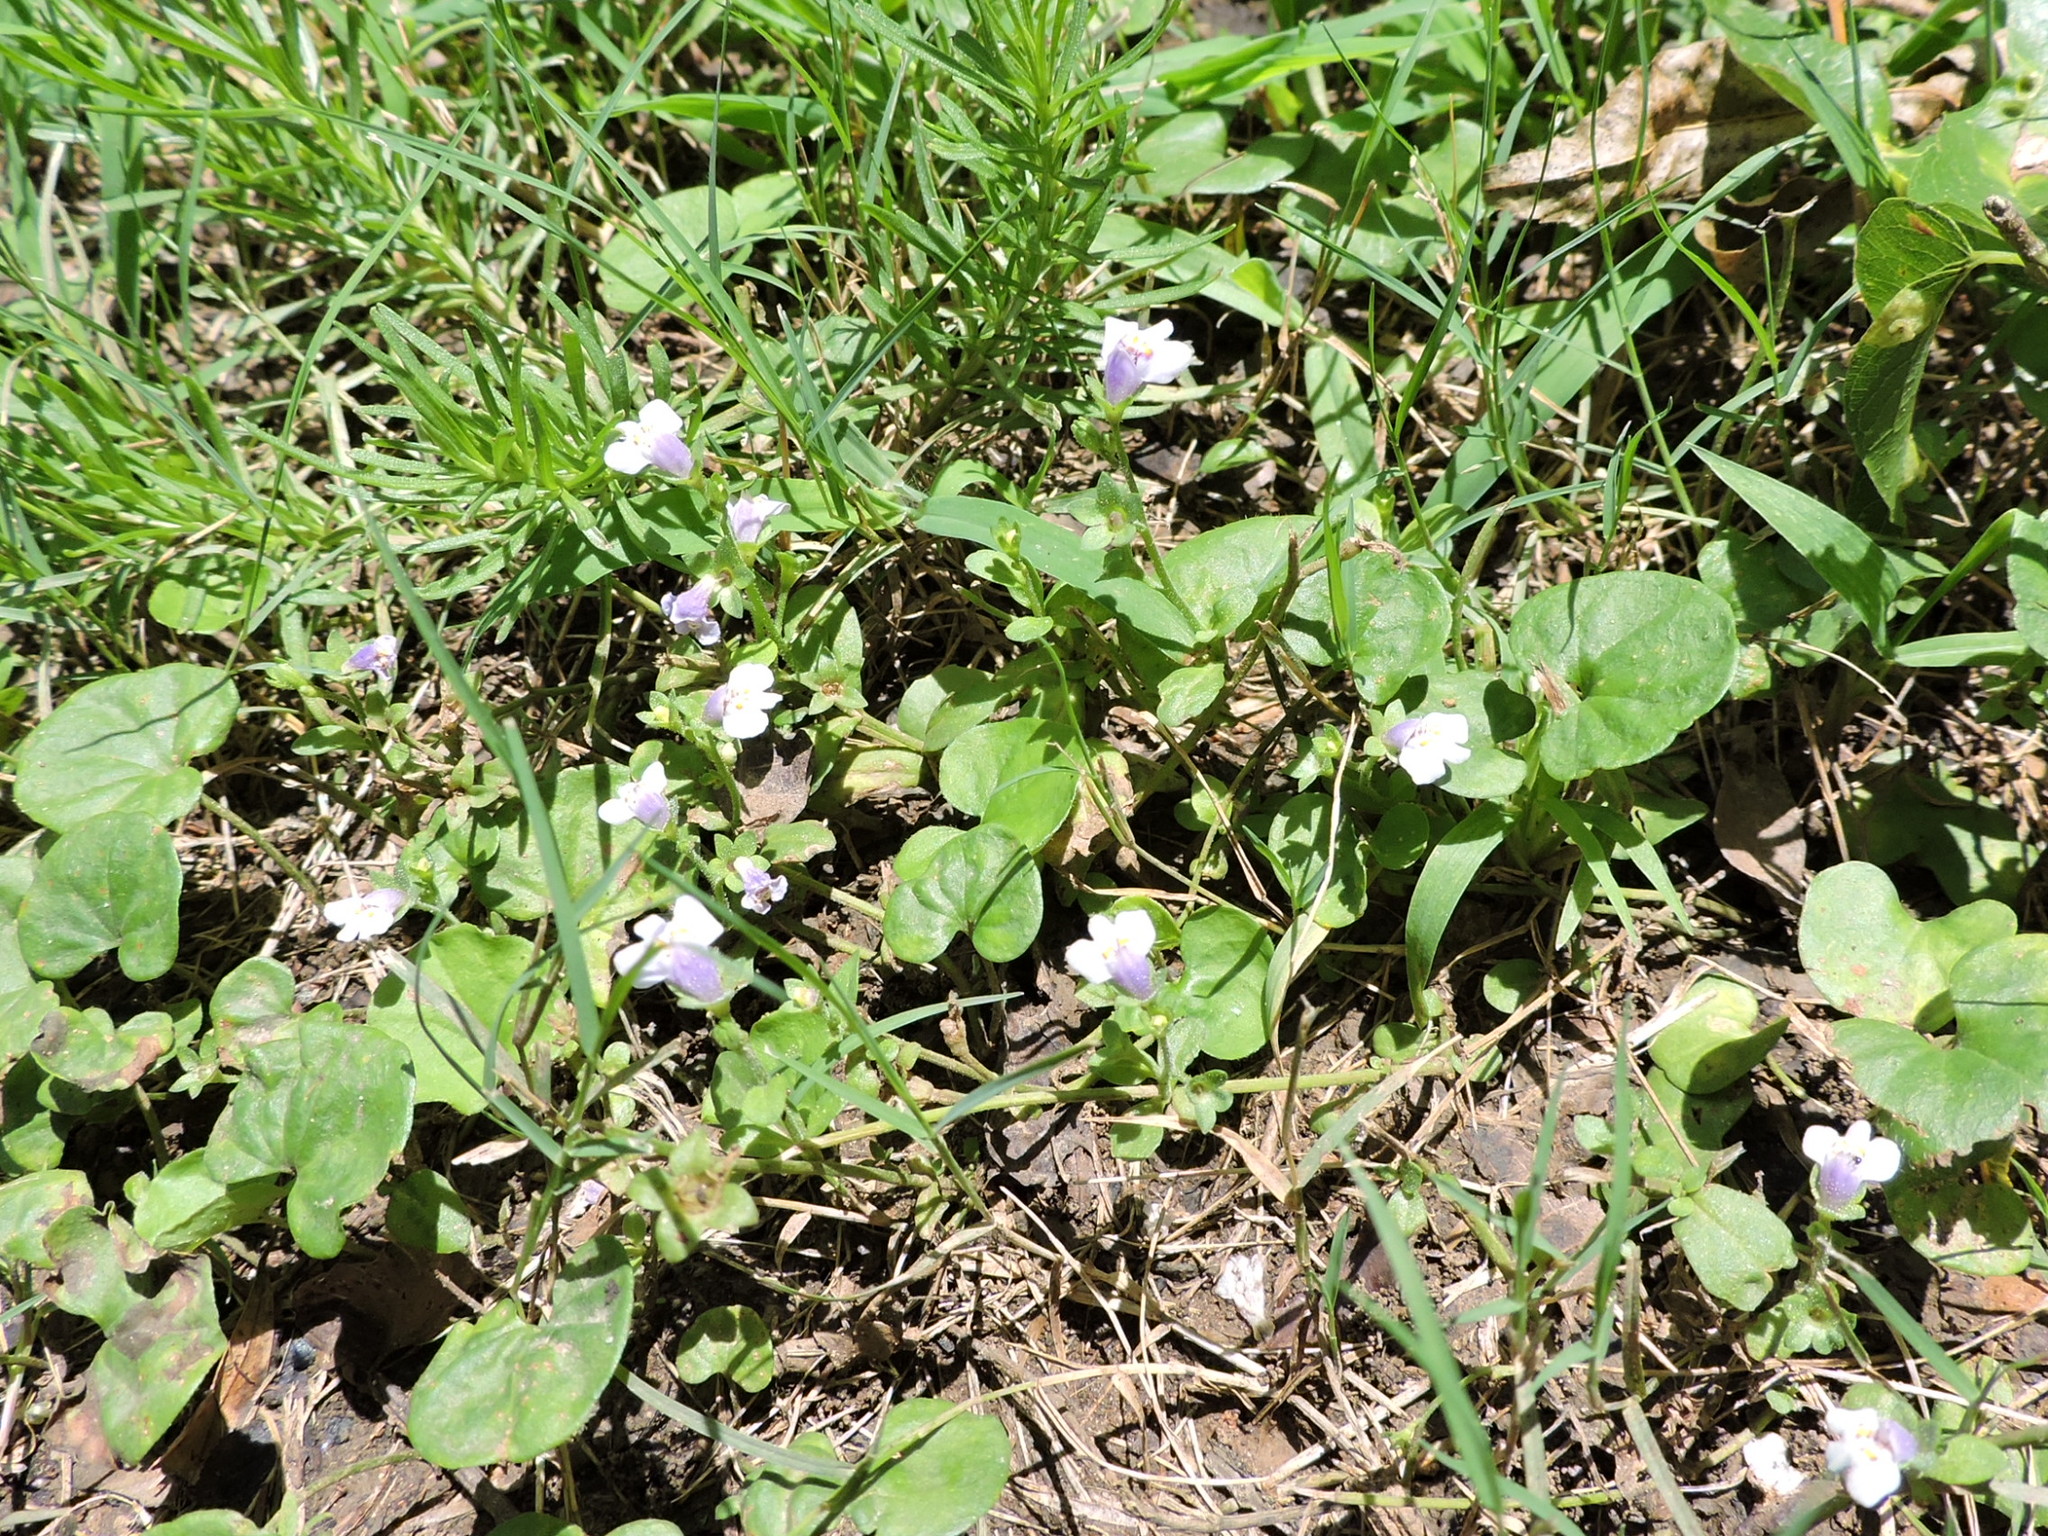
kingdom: Plantae
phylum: Tracheophyta
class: Magnoliopsida
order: Lamiales
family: Mazaceae
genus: Mazus
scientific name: Mazus pumilus
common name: Japanese mazus
